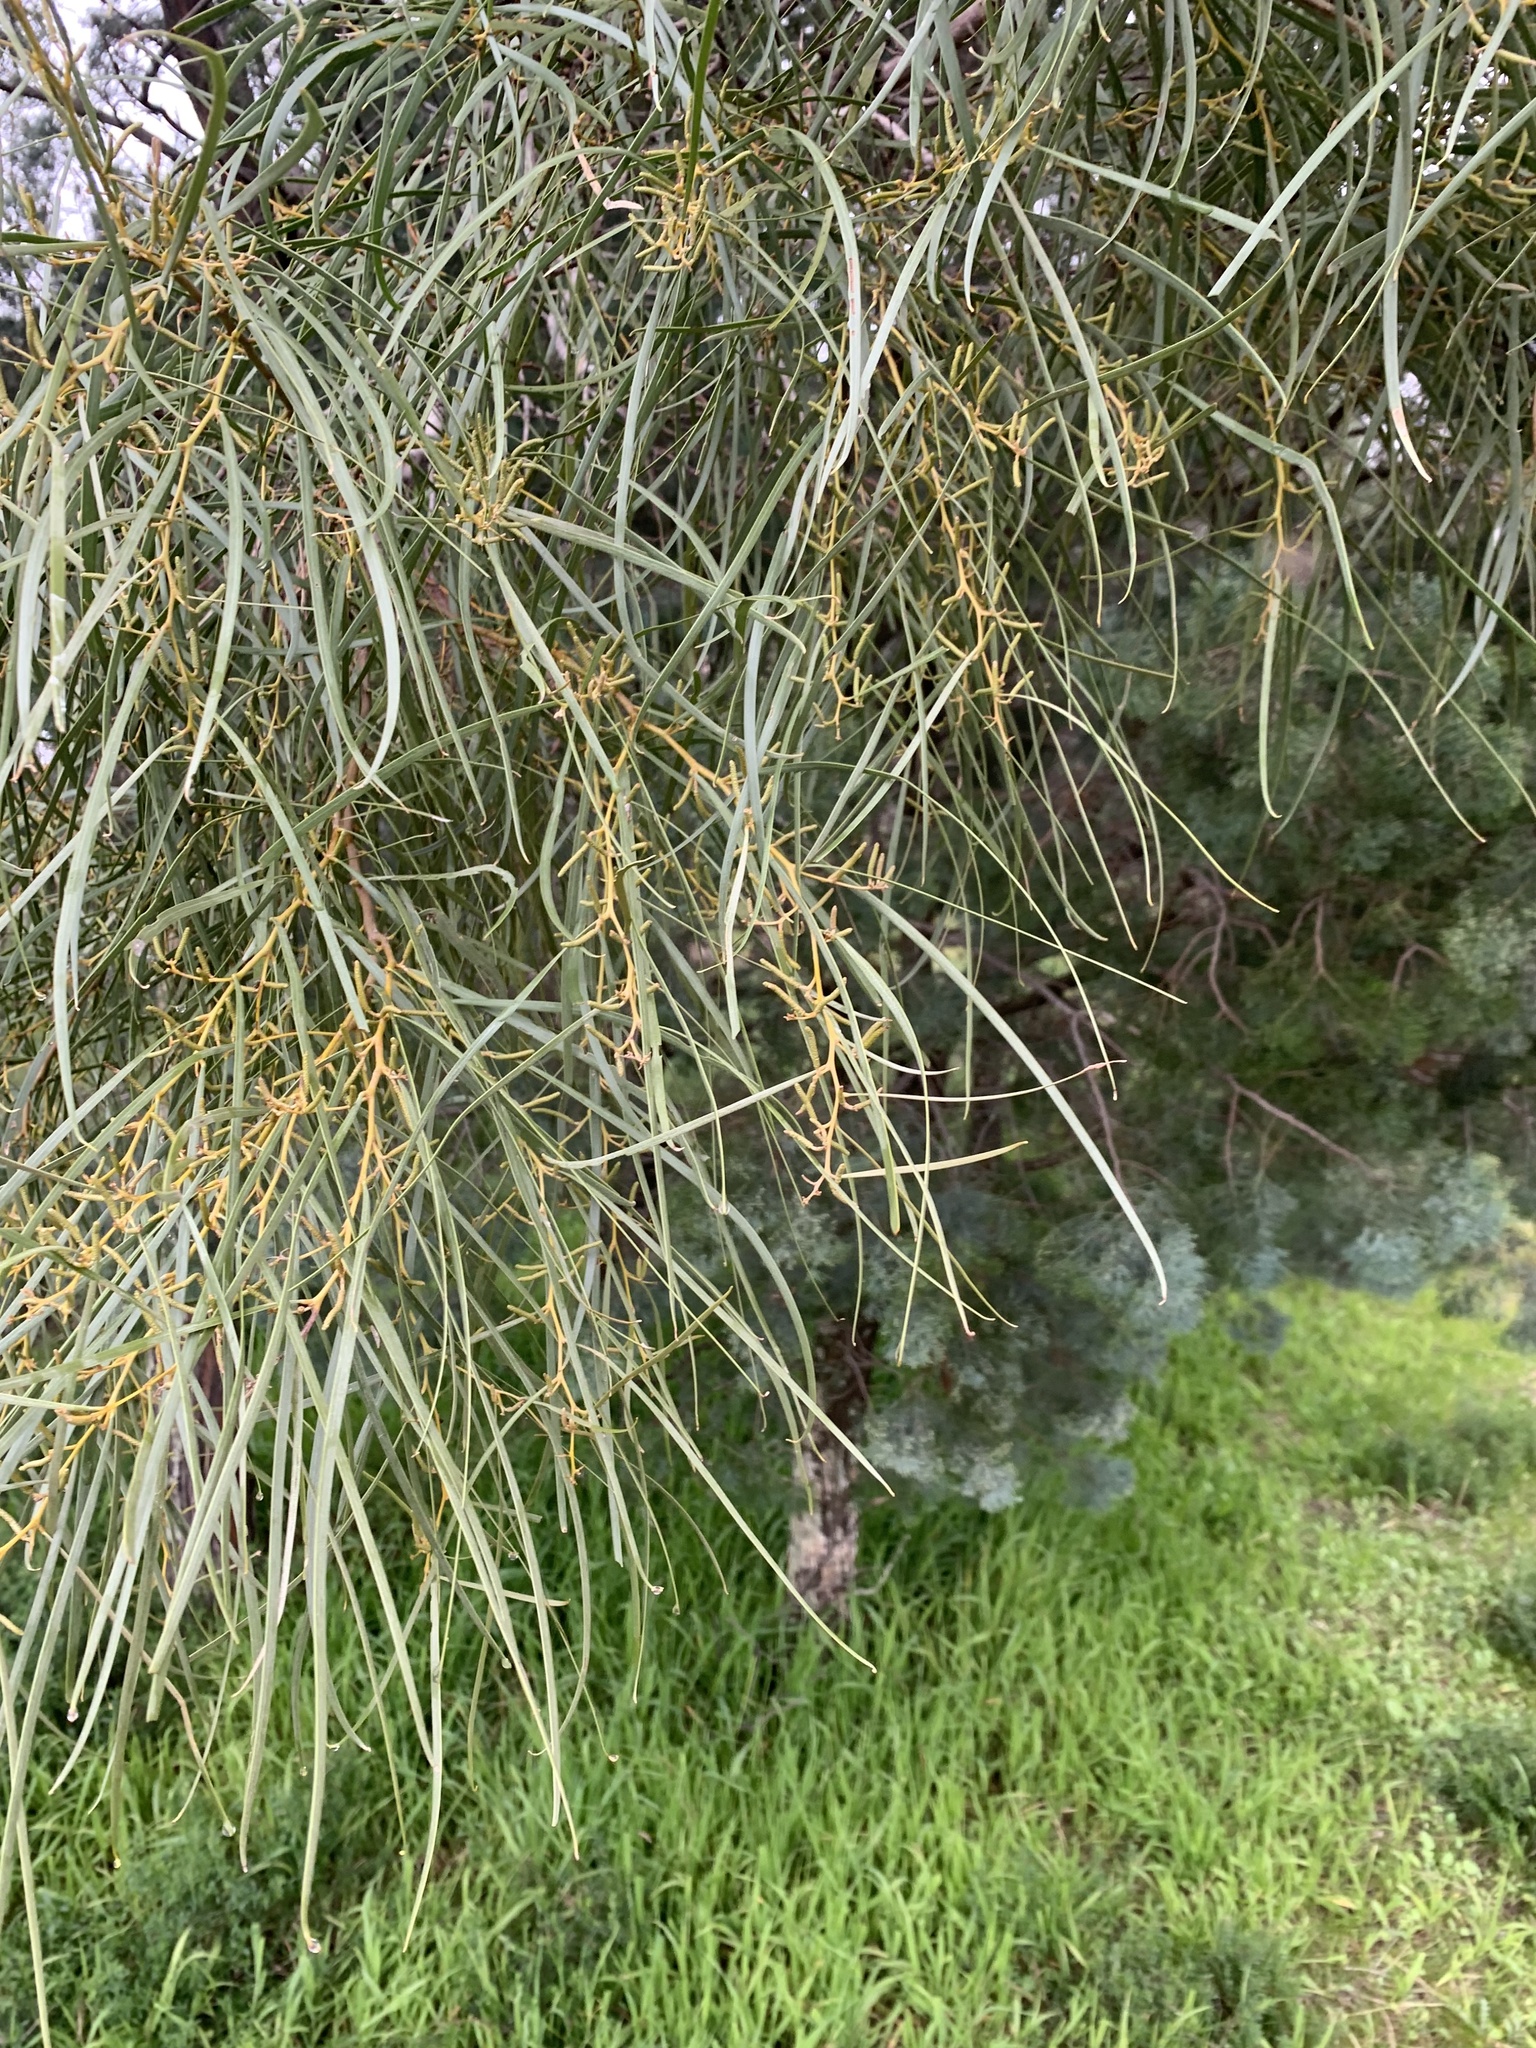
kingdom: Plantae
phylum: Tracheophyta
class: Magnoliopsida
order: Fabales
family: Fabaceae
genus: Acacia
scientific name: Acacia doratoxylon
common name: Lancewood
